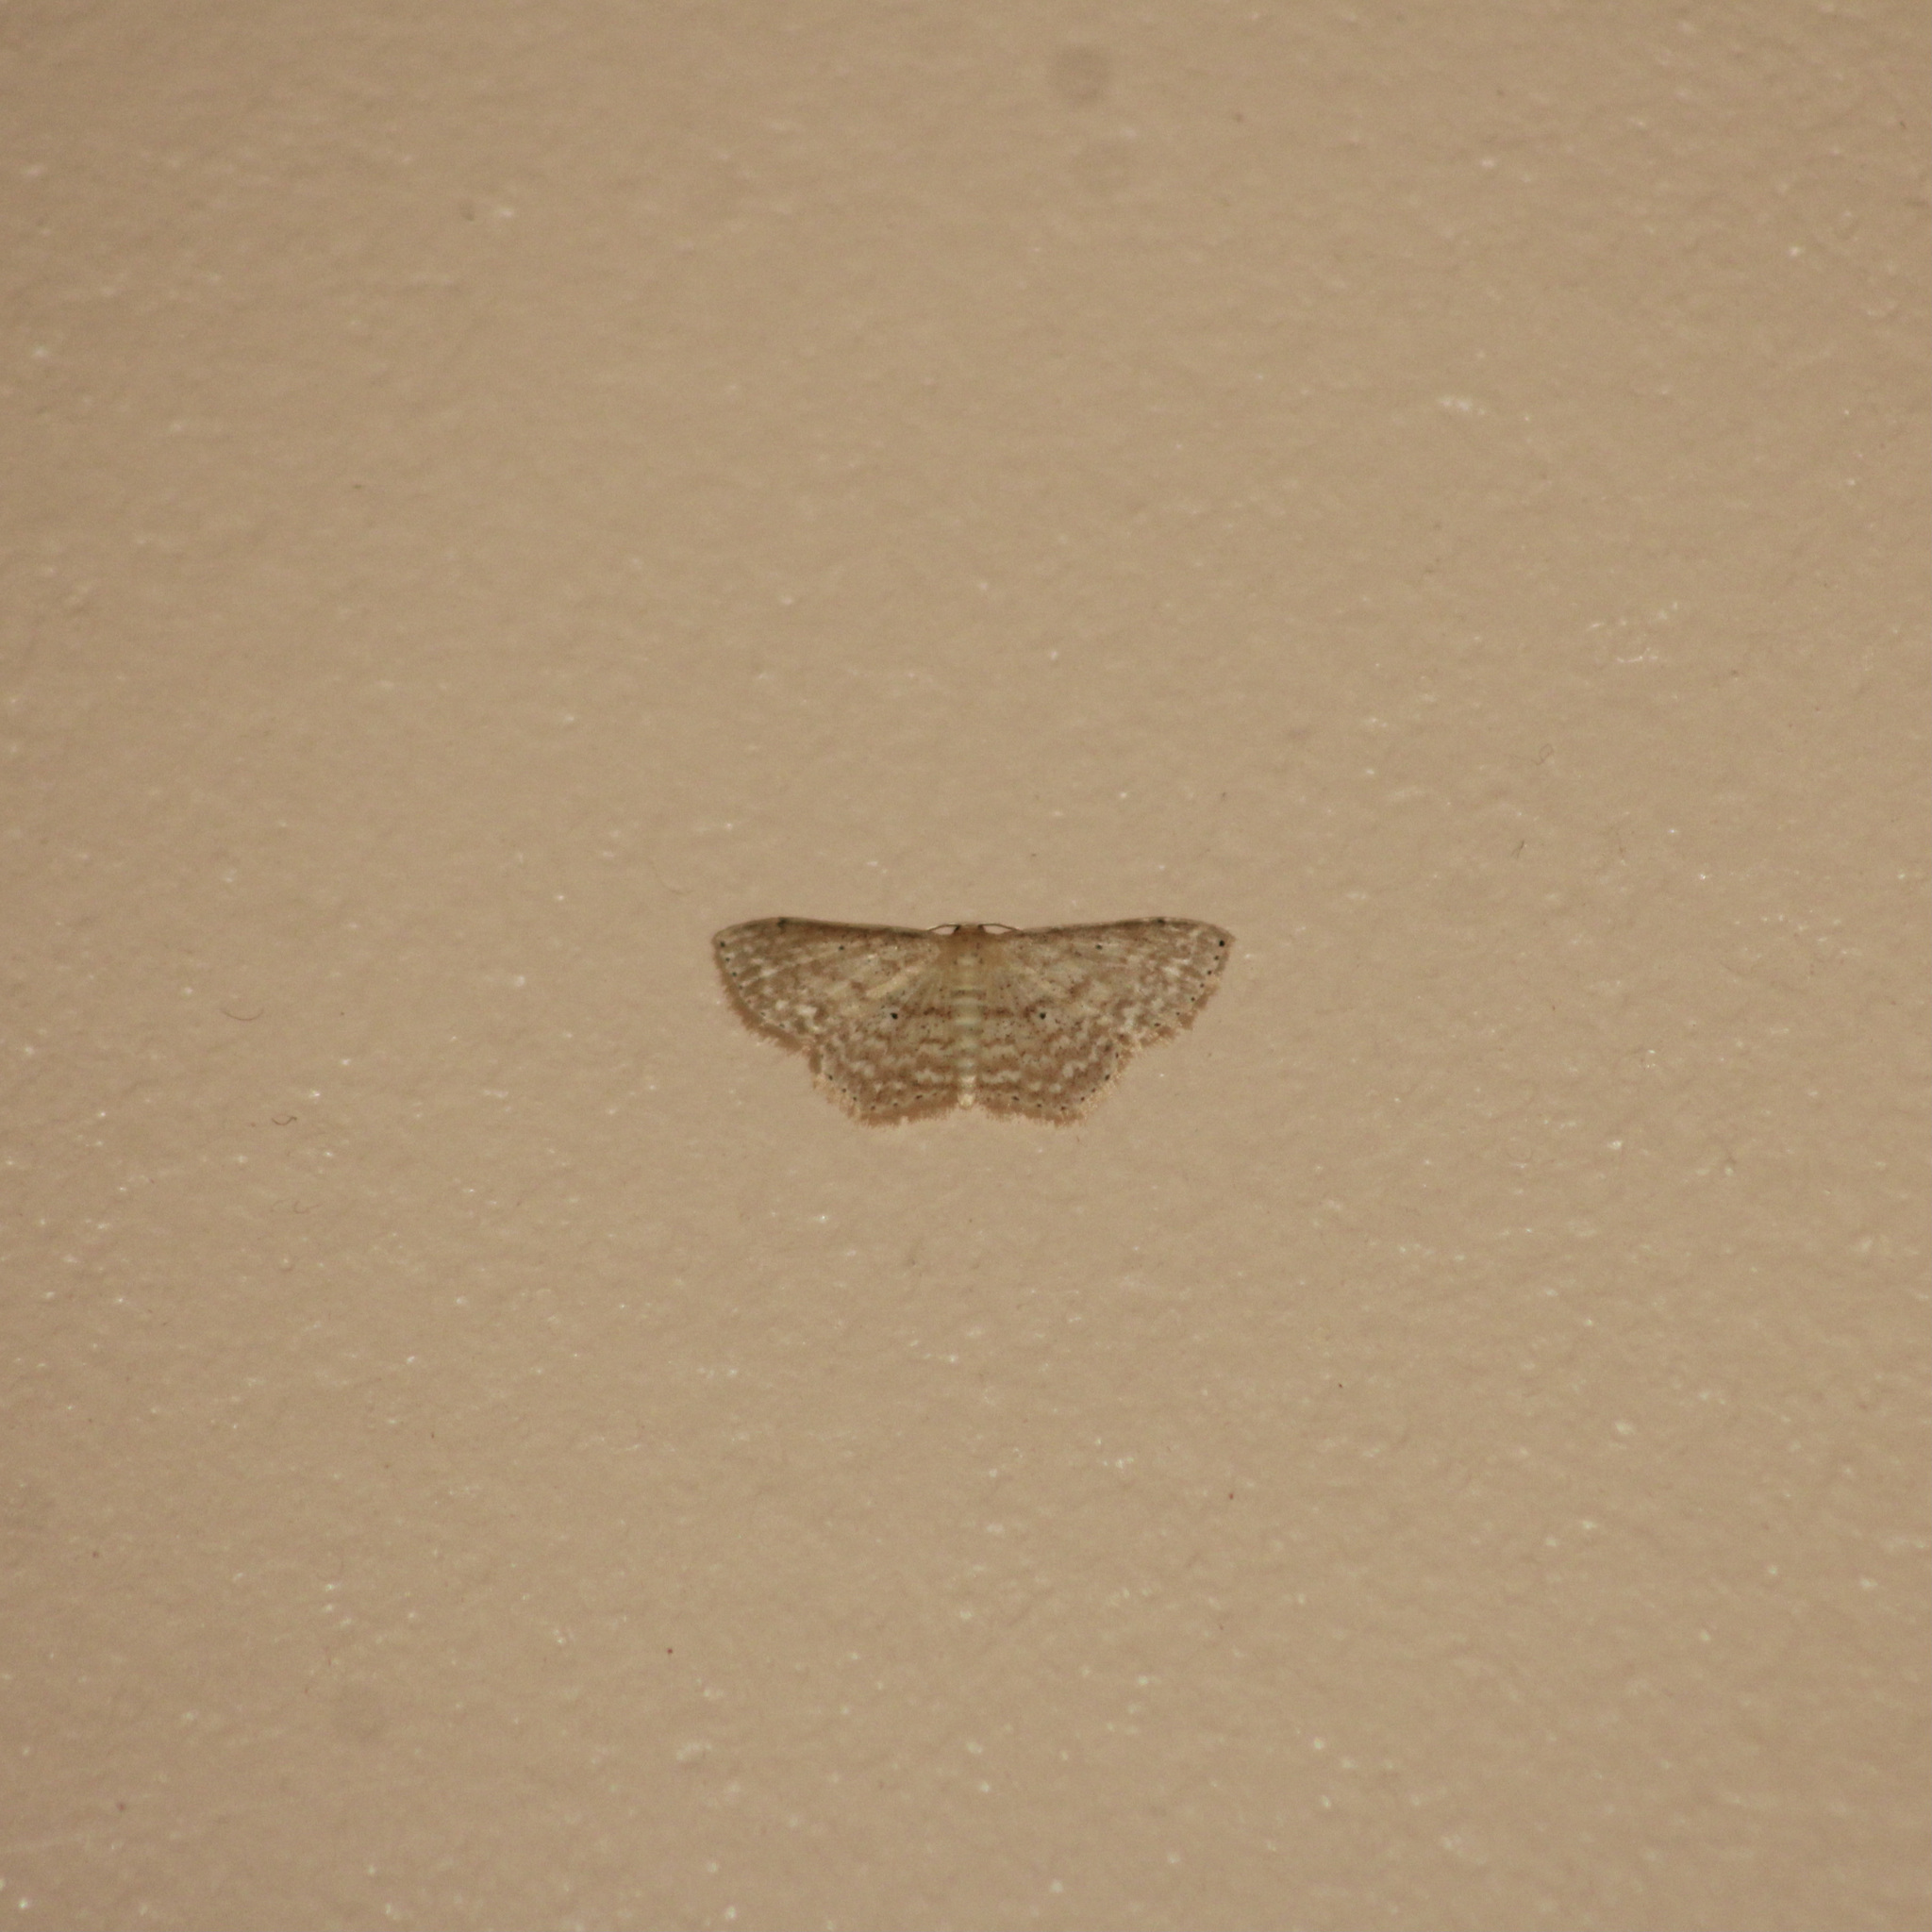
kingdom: Animalia
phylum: Arthropoda
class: Insecta
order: Lepidoptera
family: Geometridae
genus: Scopula
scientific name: Scopula apparitaria
